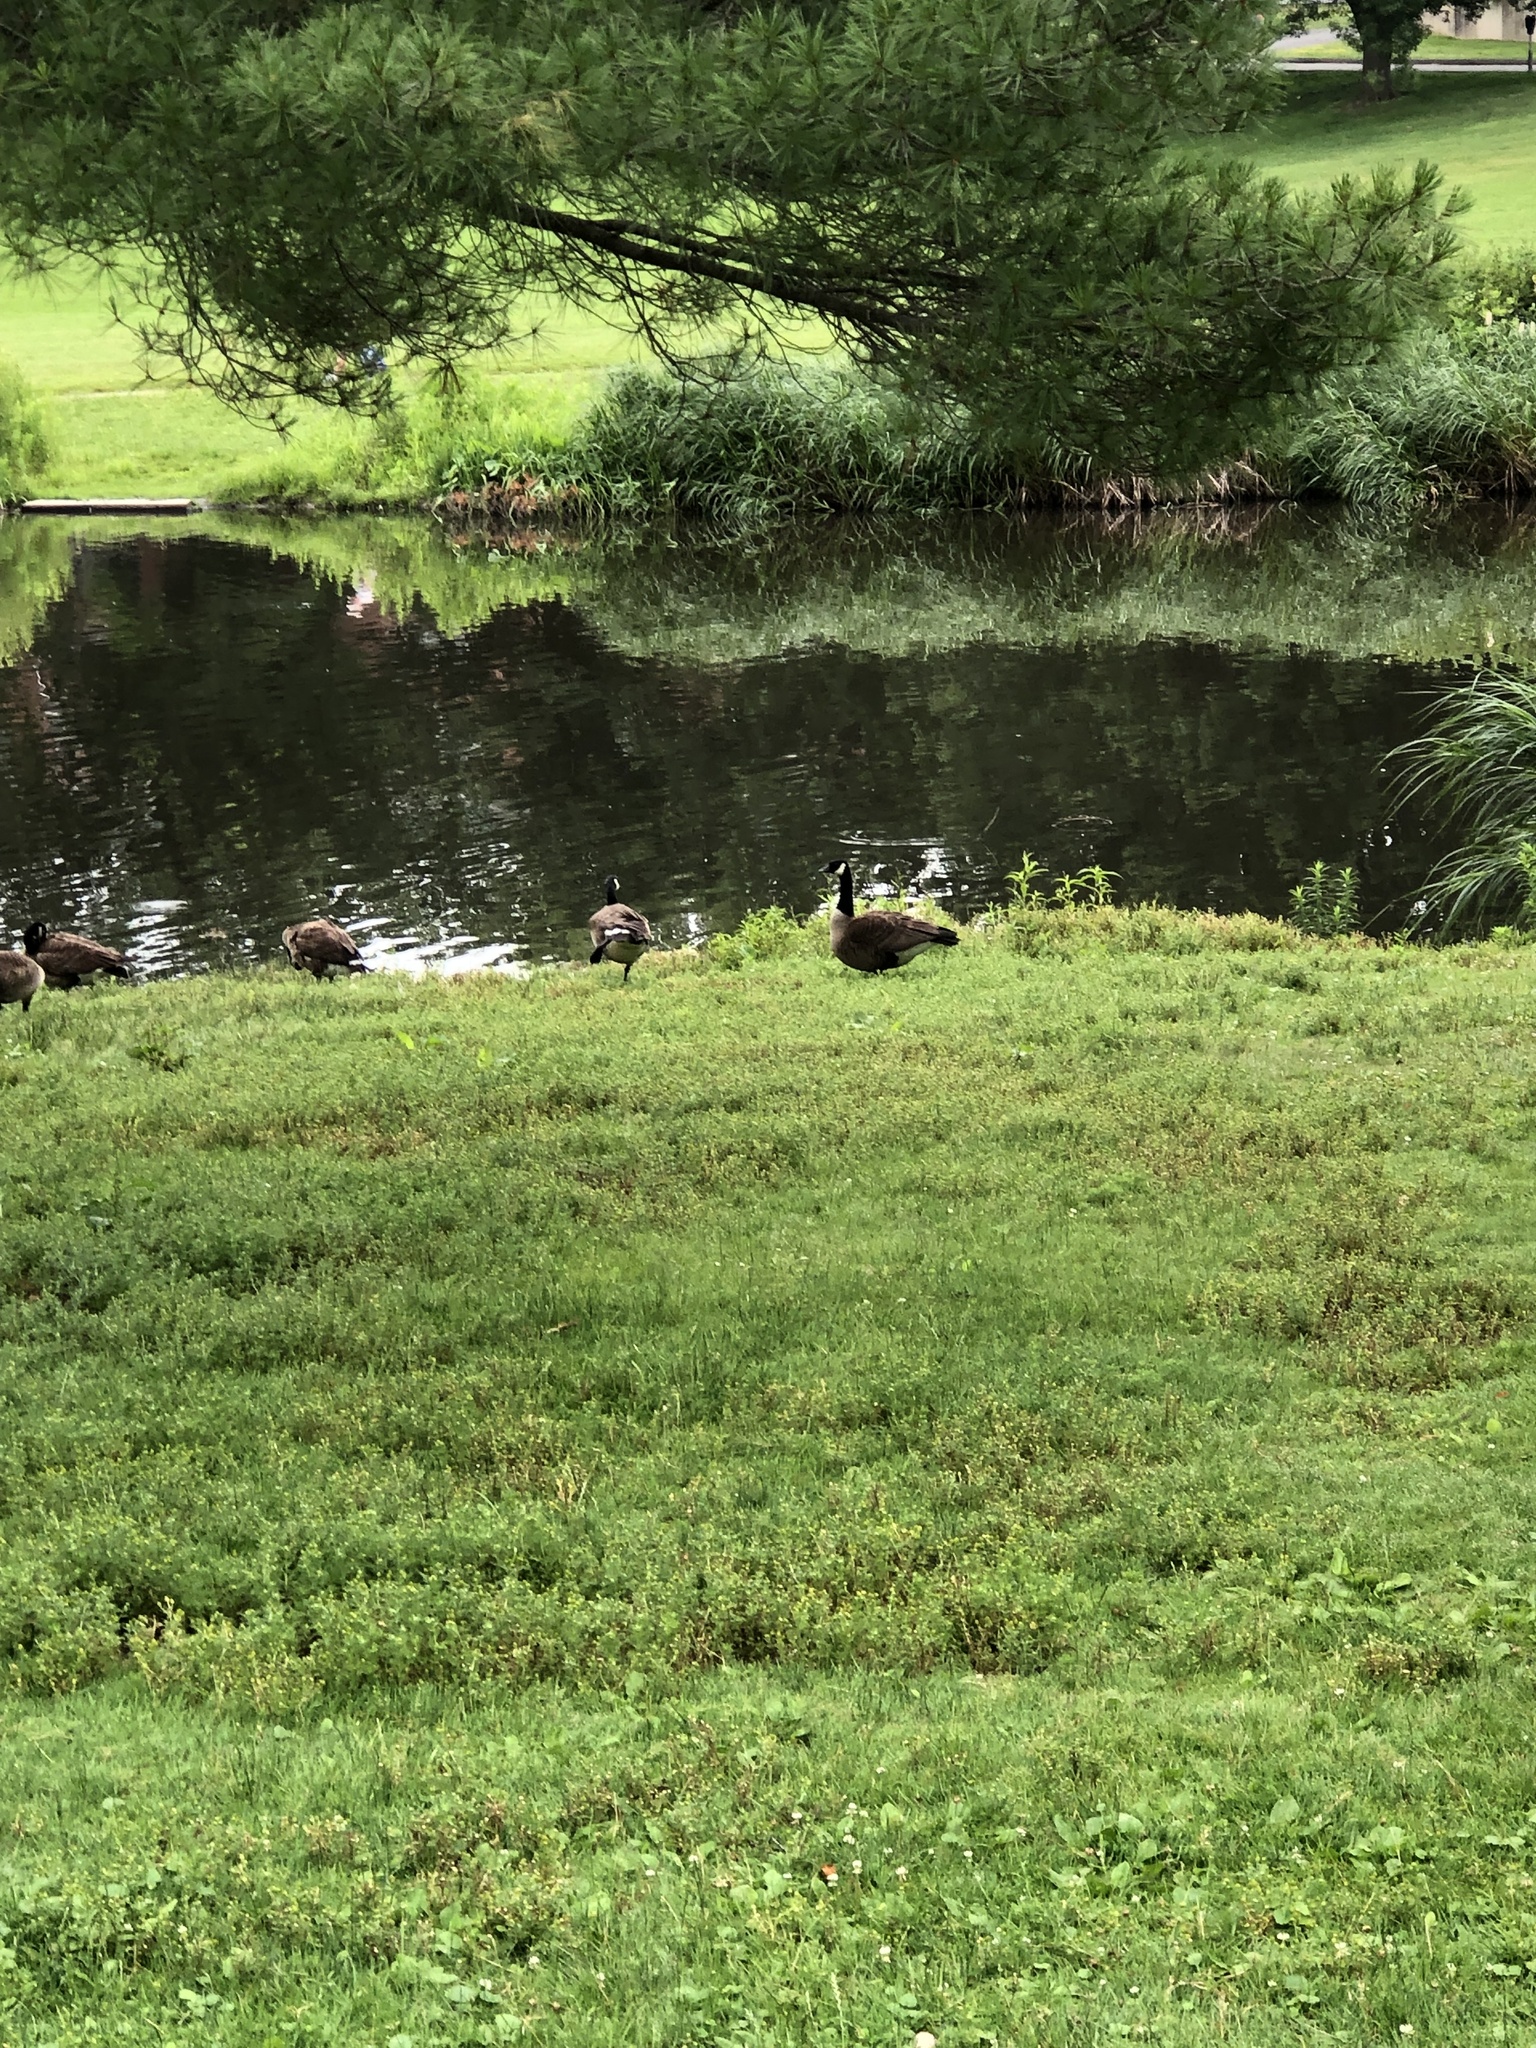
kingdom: Animalia
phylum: Chordata
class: Aves
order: Anseriformes
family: Anatidae
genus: Branta
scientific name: Branta canadensis
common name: Canada goose
